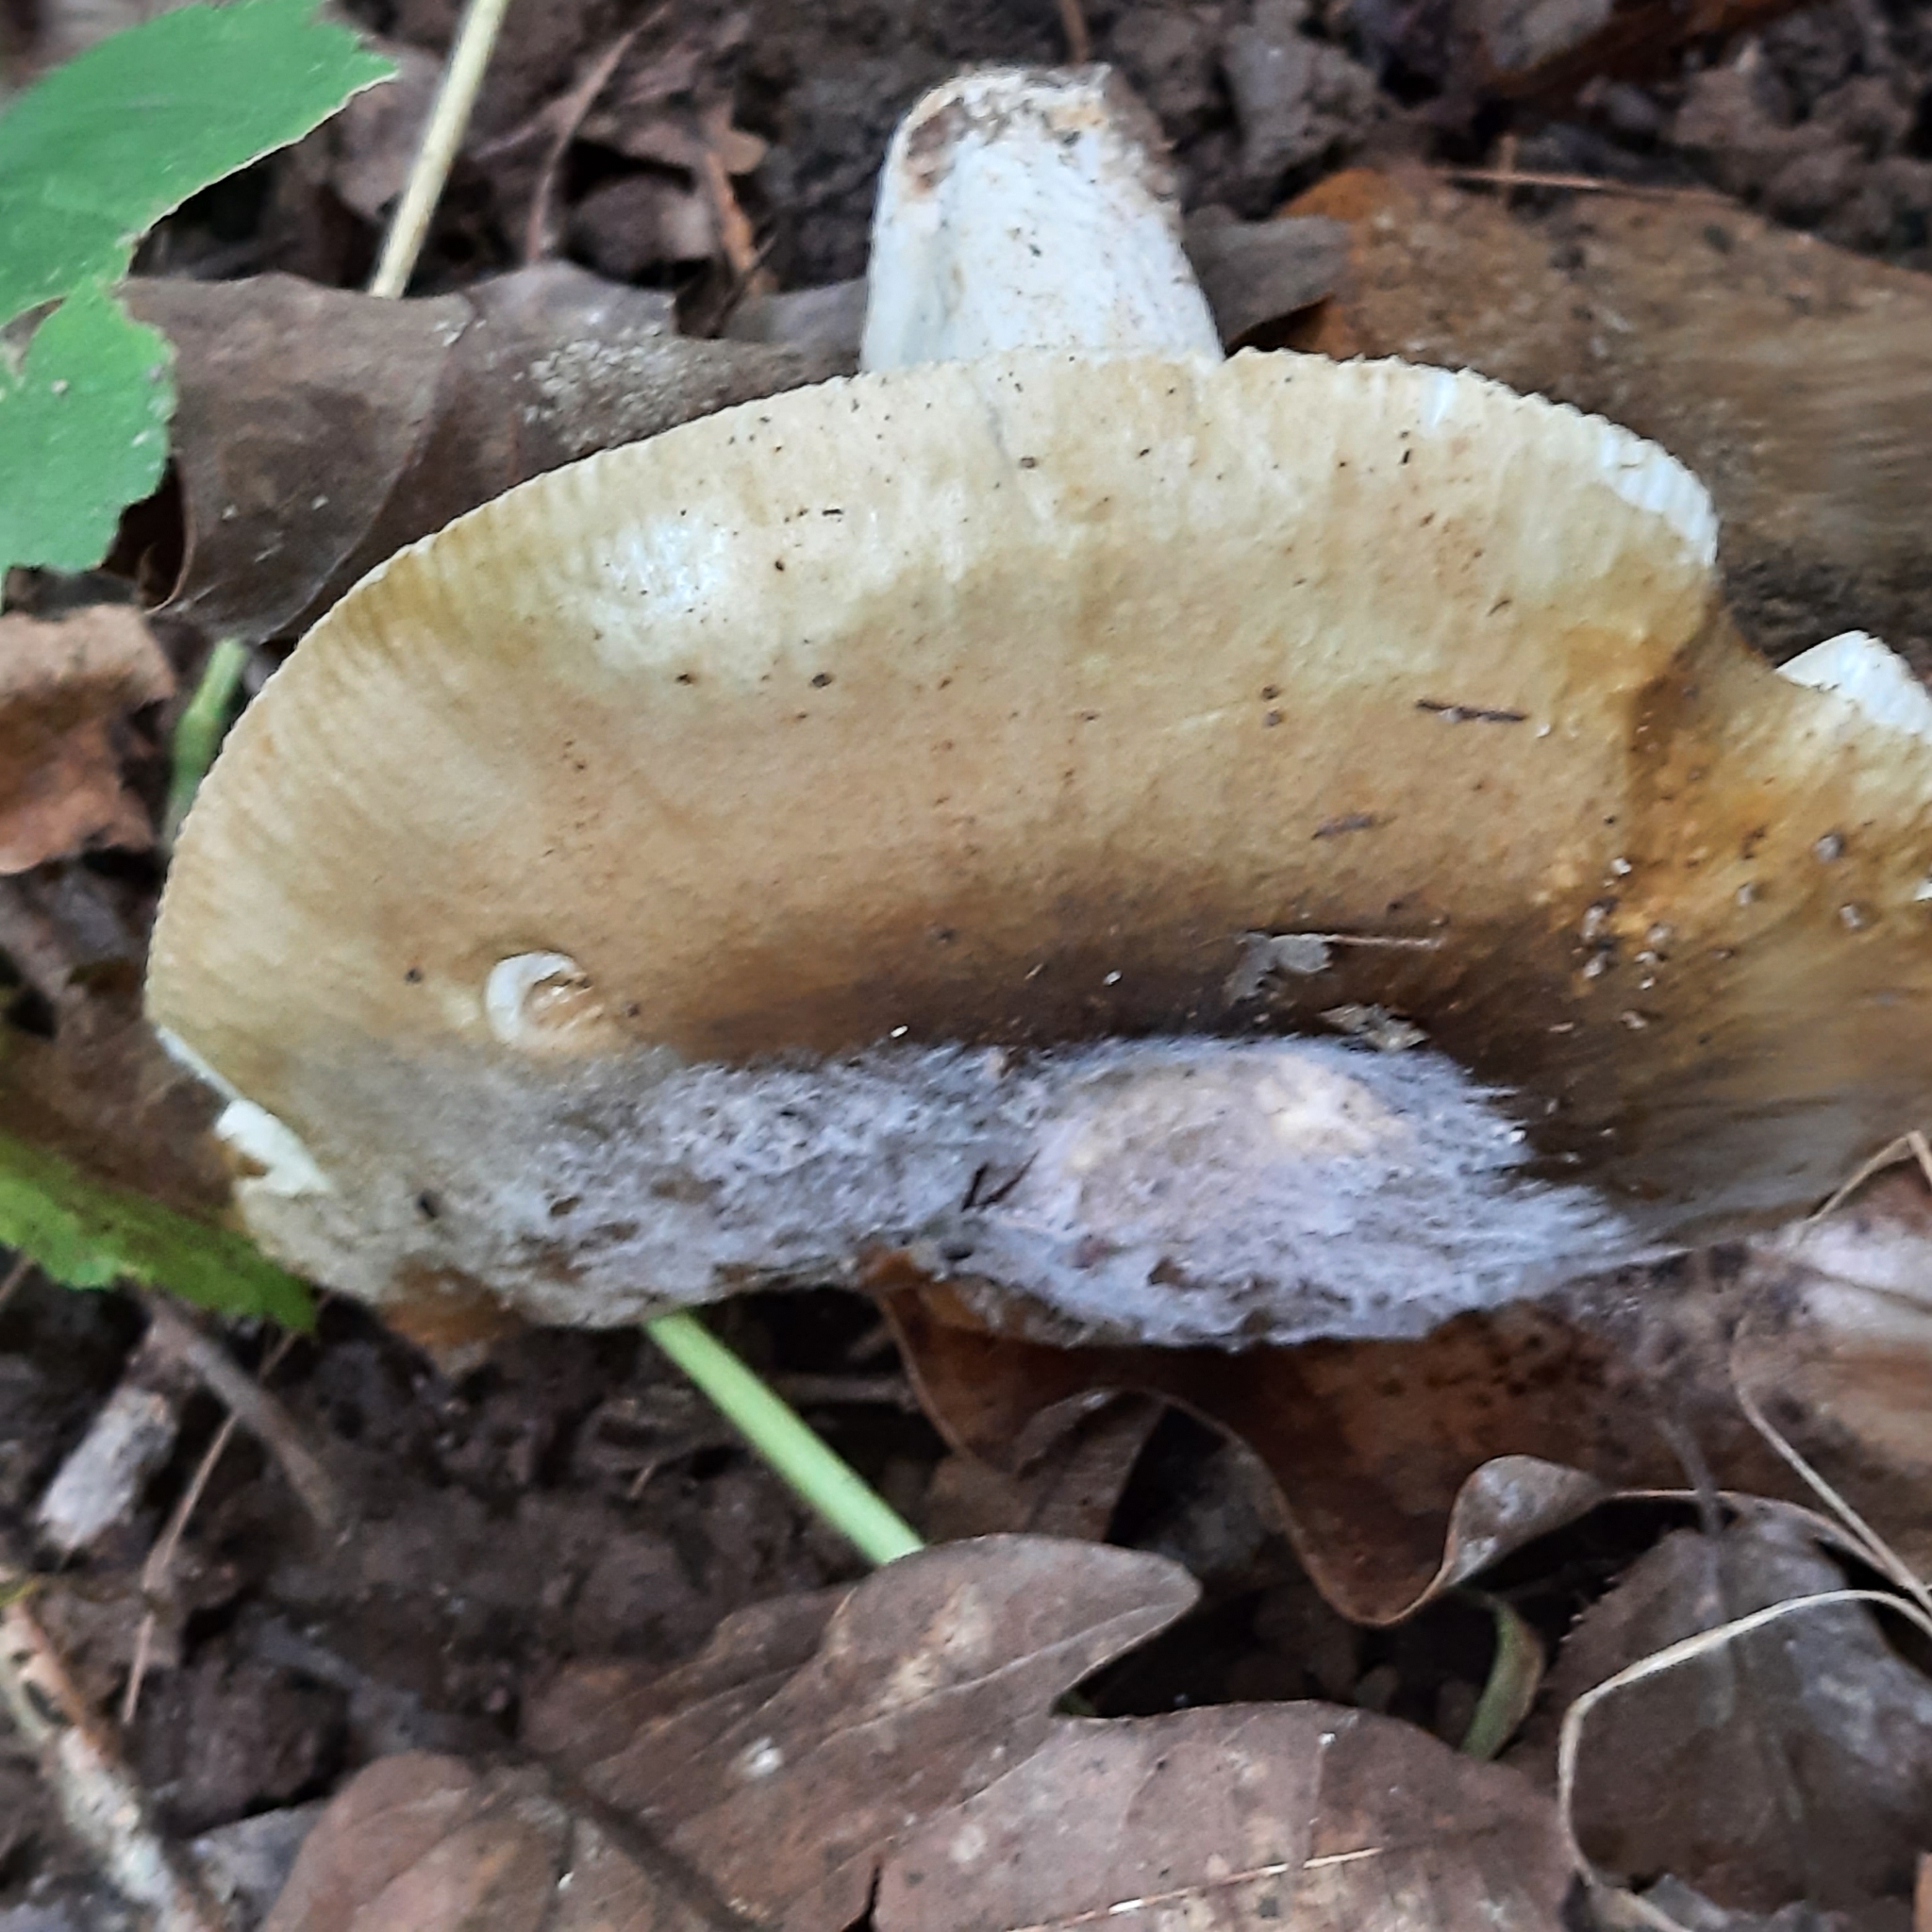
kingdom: Fungi
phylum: Basidiomycota
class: Agaricomycetes
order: Russulales
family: Russulaceae
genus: Russula
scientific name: Russula
